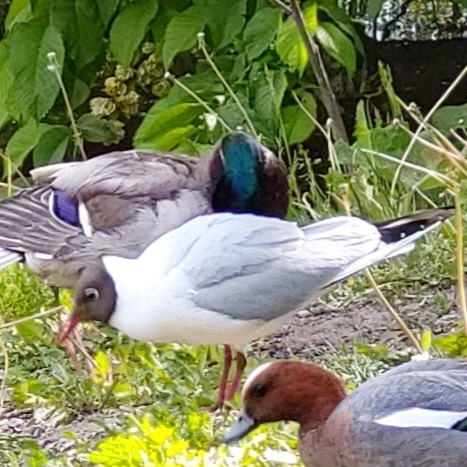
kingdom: Animalia
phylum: Chordata
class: Aves
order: Charadriiformes
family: Laridae
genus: Chroicocephalus
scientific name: Chroicocephalus ridibundus
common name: Black-headed gull
